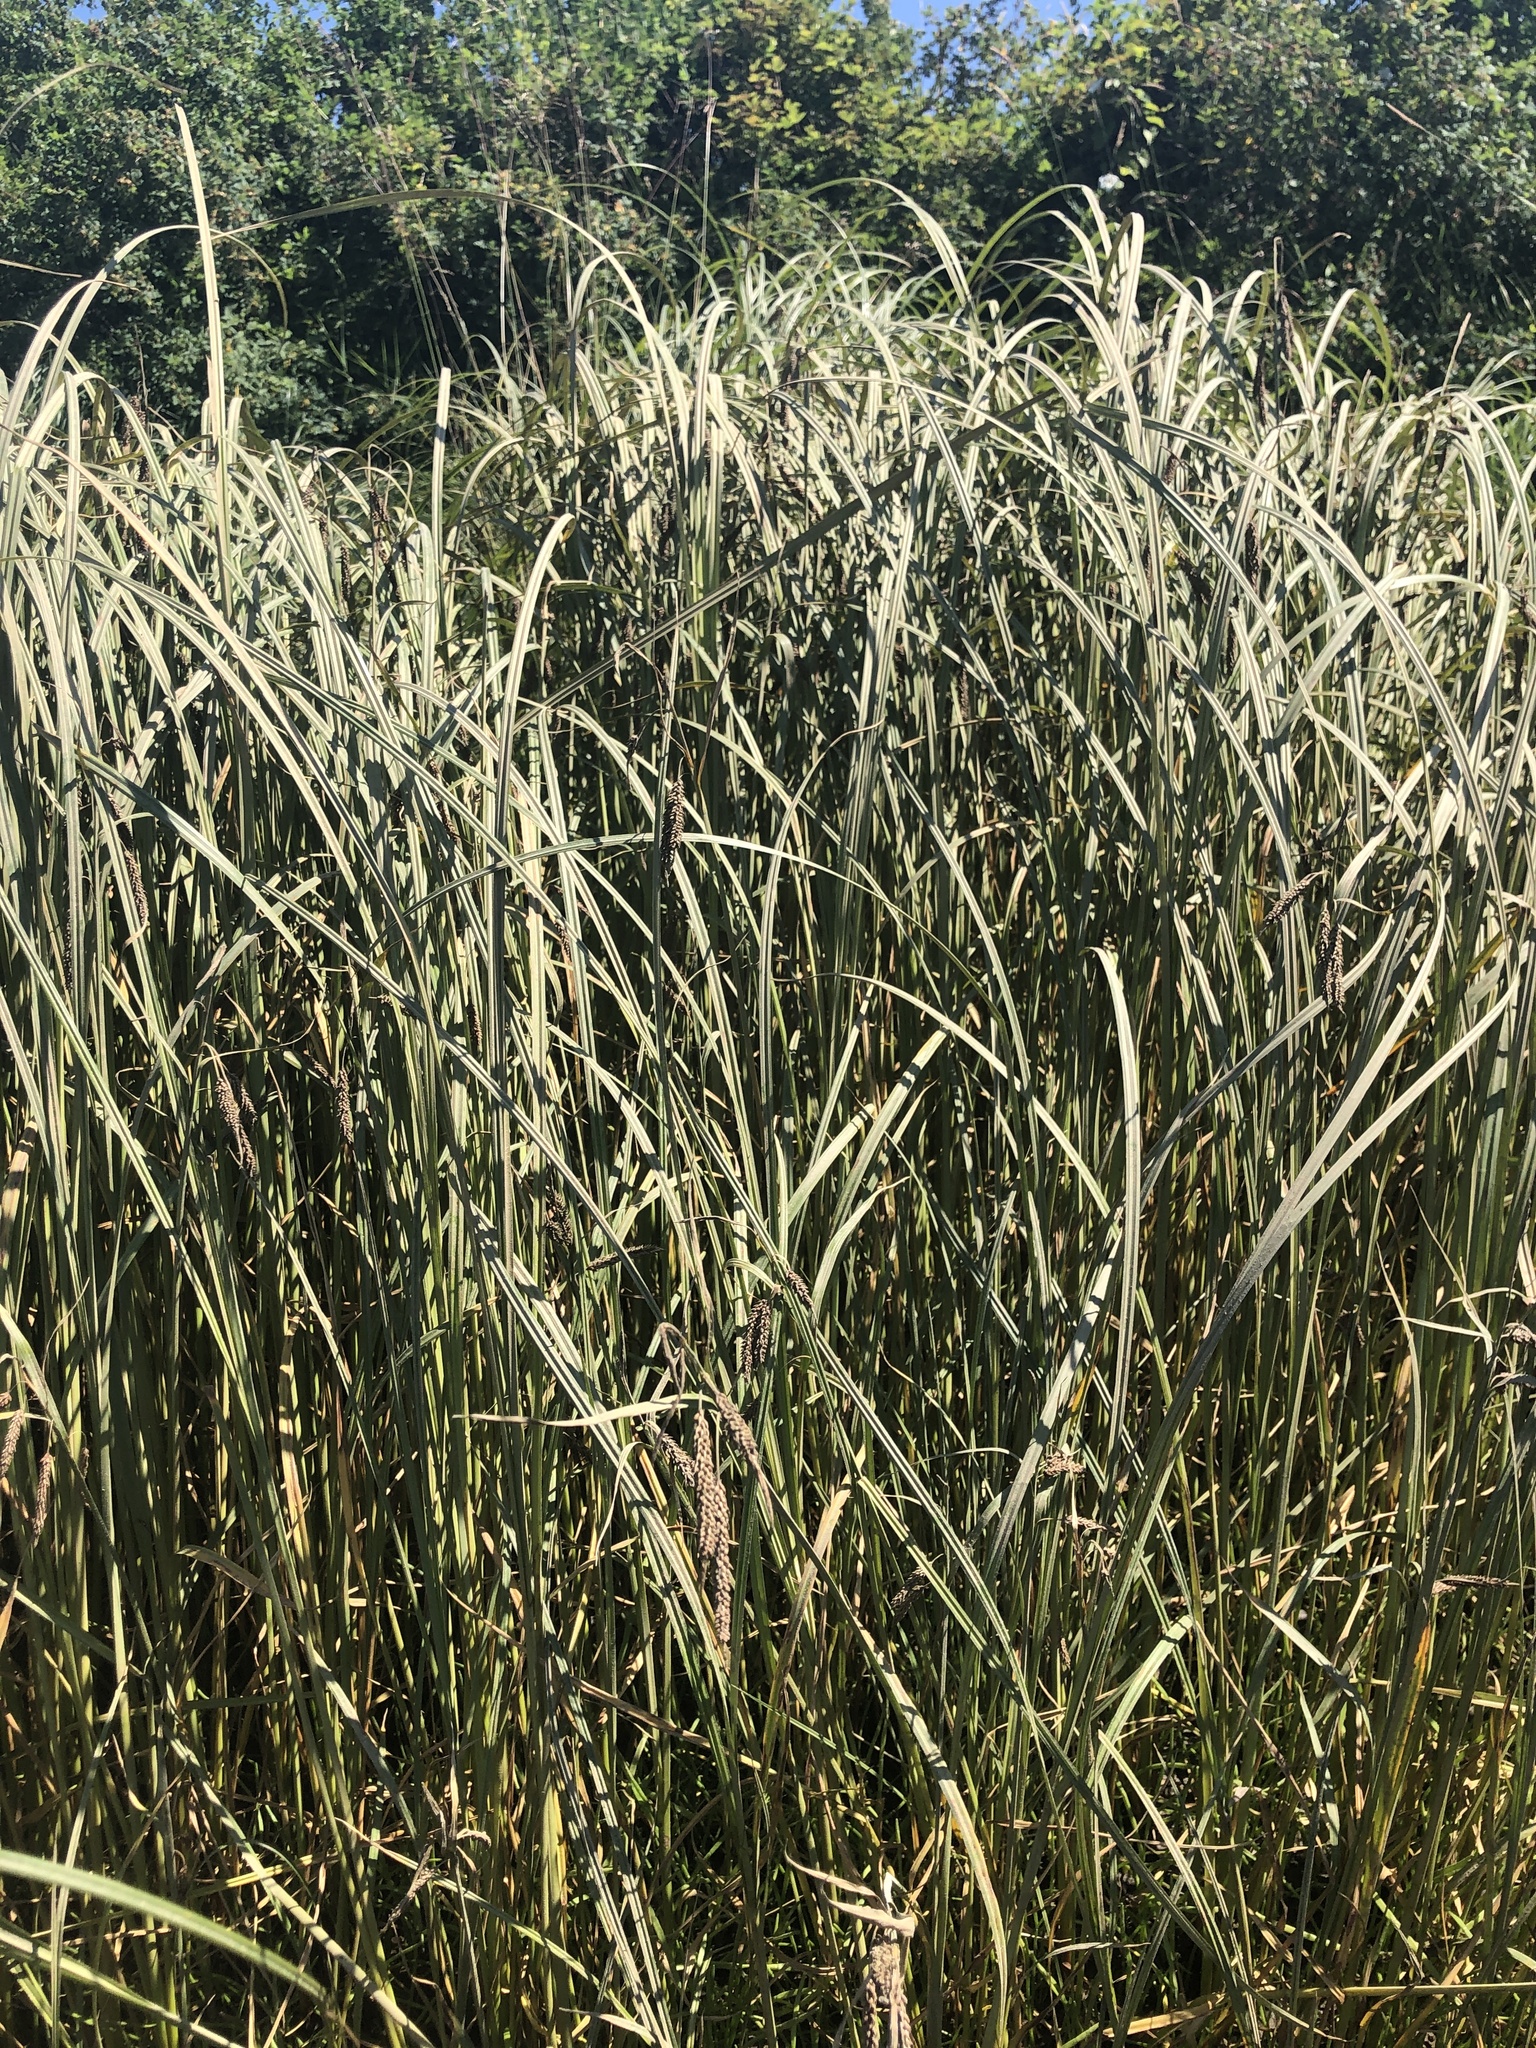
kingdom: Plantae
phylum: Tracheophyta
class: Liliopsida
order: Poales
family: Cyperaceae
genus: Carex
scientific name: Carex lyngbyei
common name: Lyngbye's sedge
